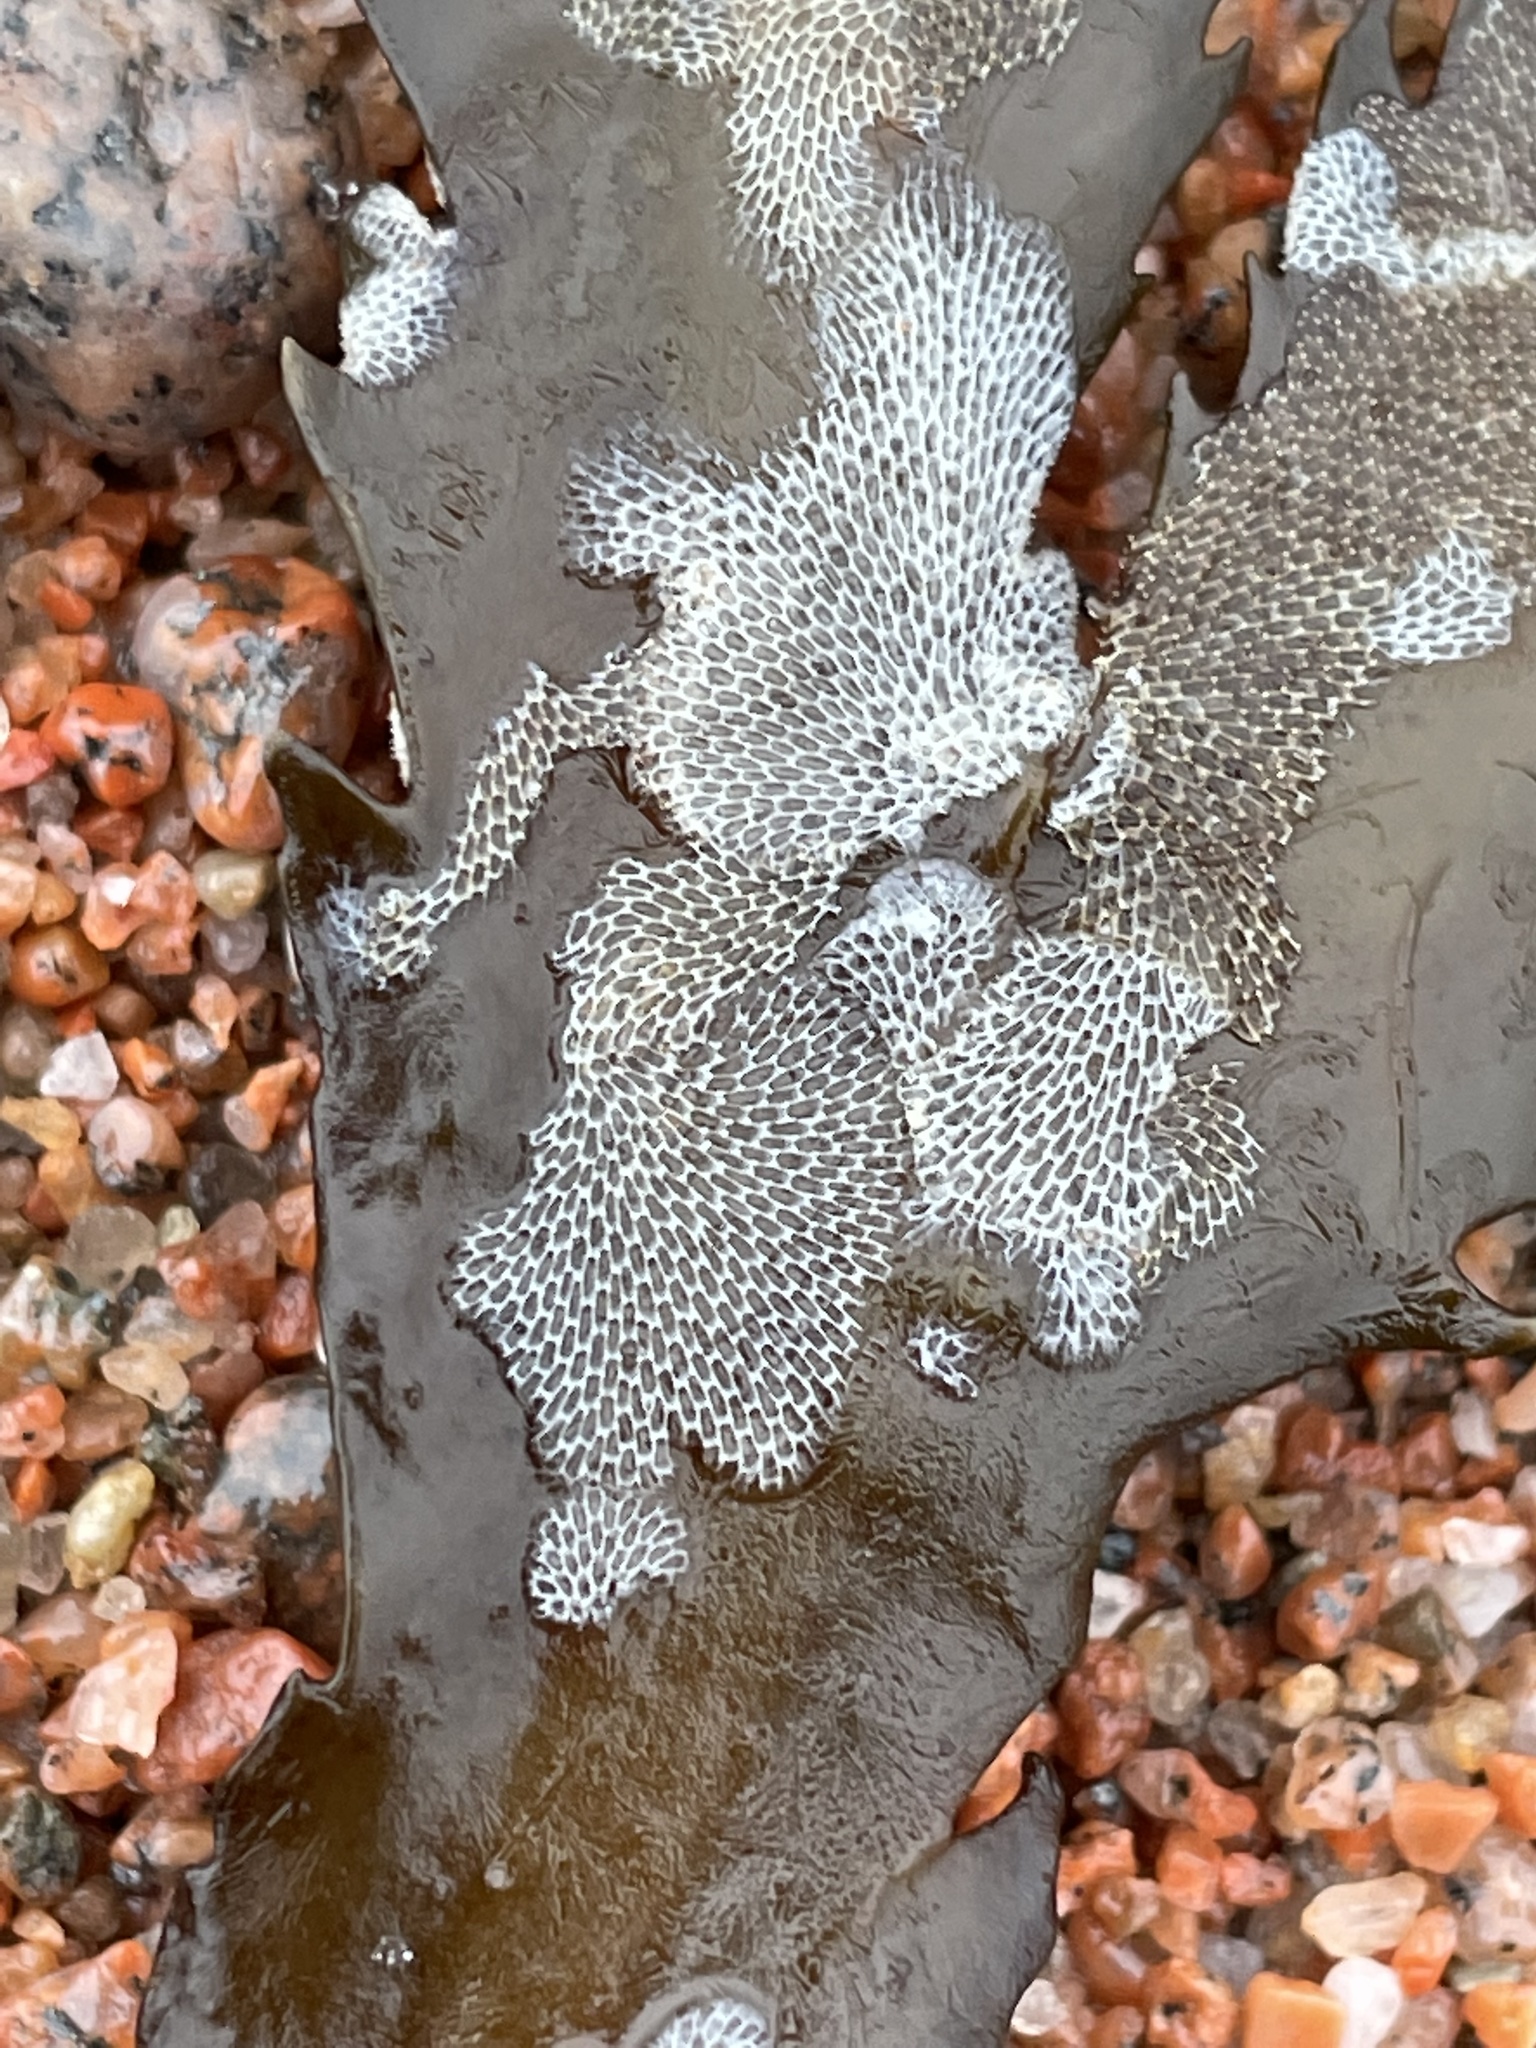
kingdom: Animalia
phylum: Bryozoa
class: Gymnolaemata
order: Cheilostomatida
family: Membraniporidae
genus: Membranipora
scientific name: Membranipora membranacea
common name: Sea mat
